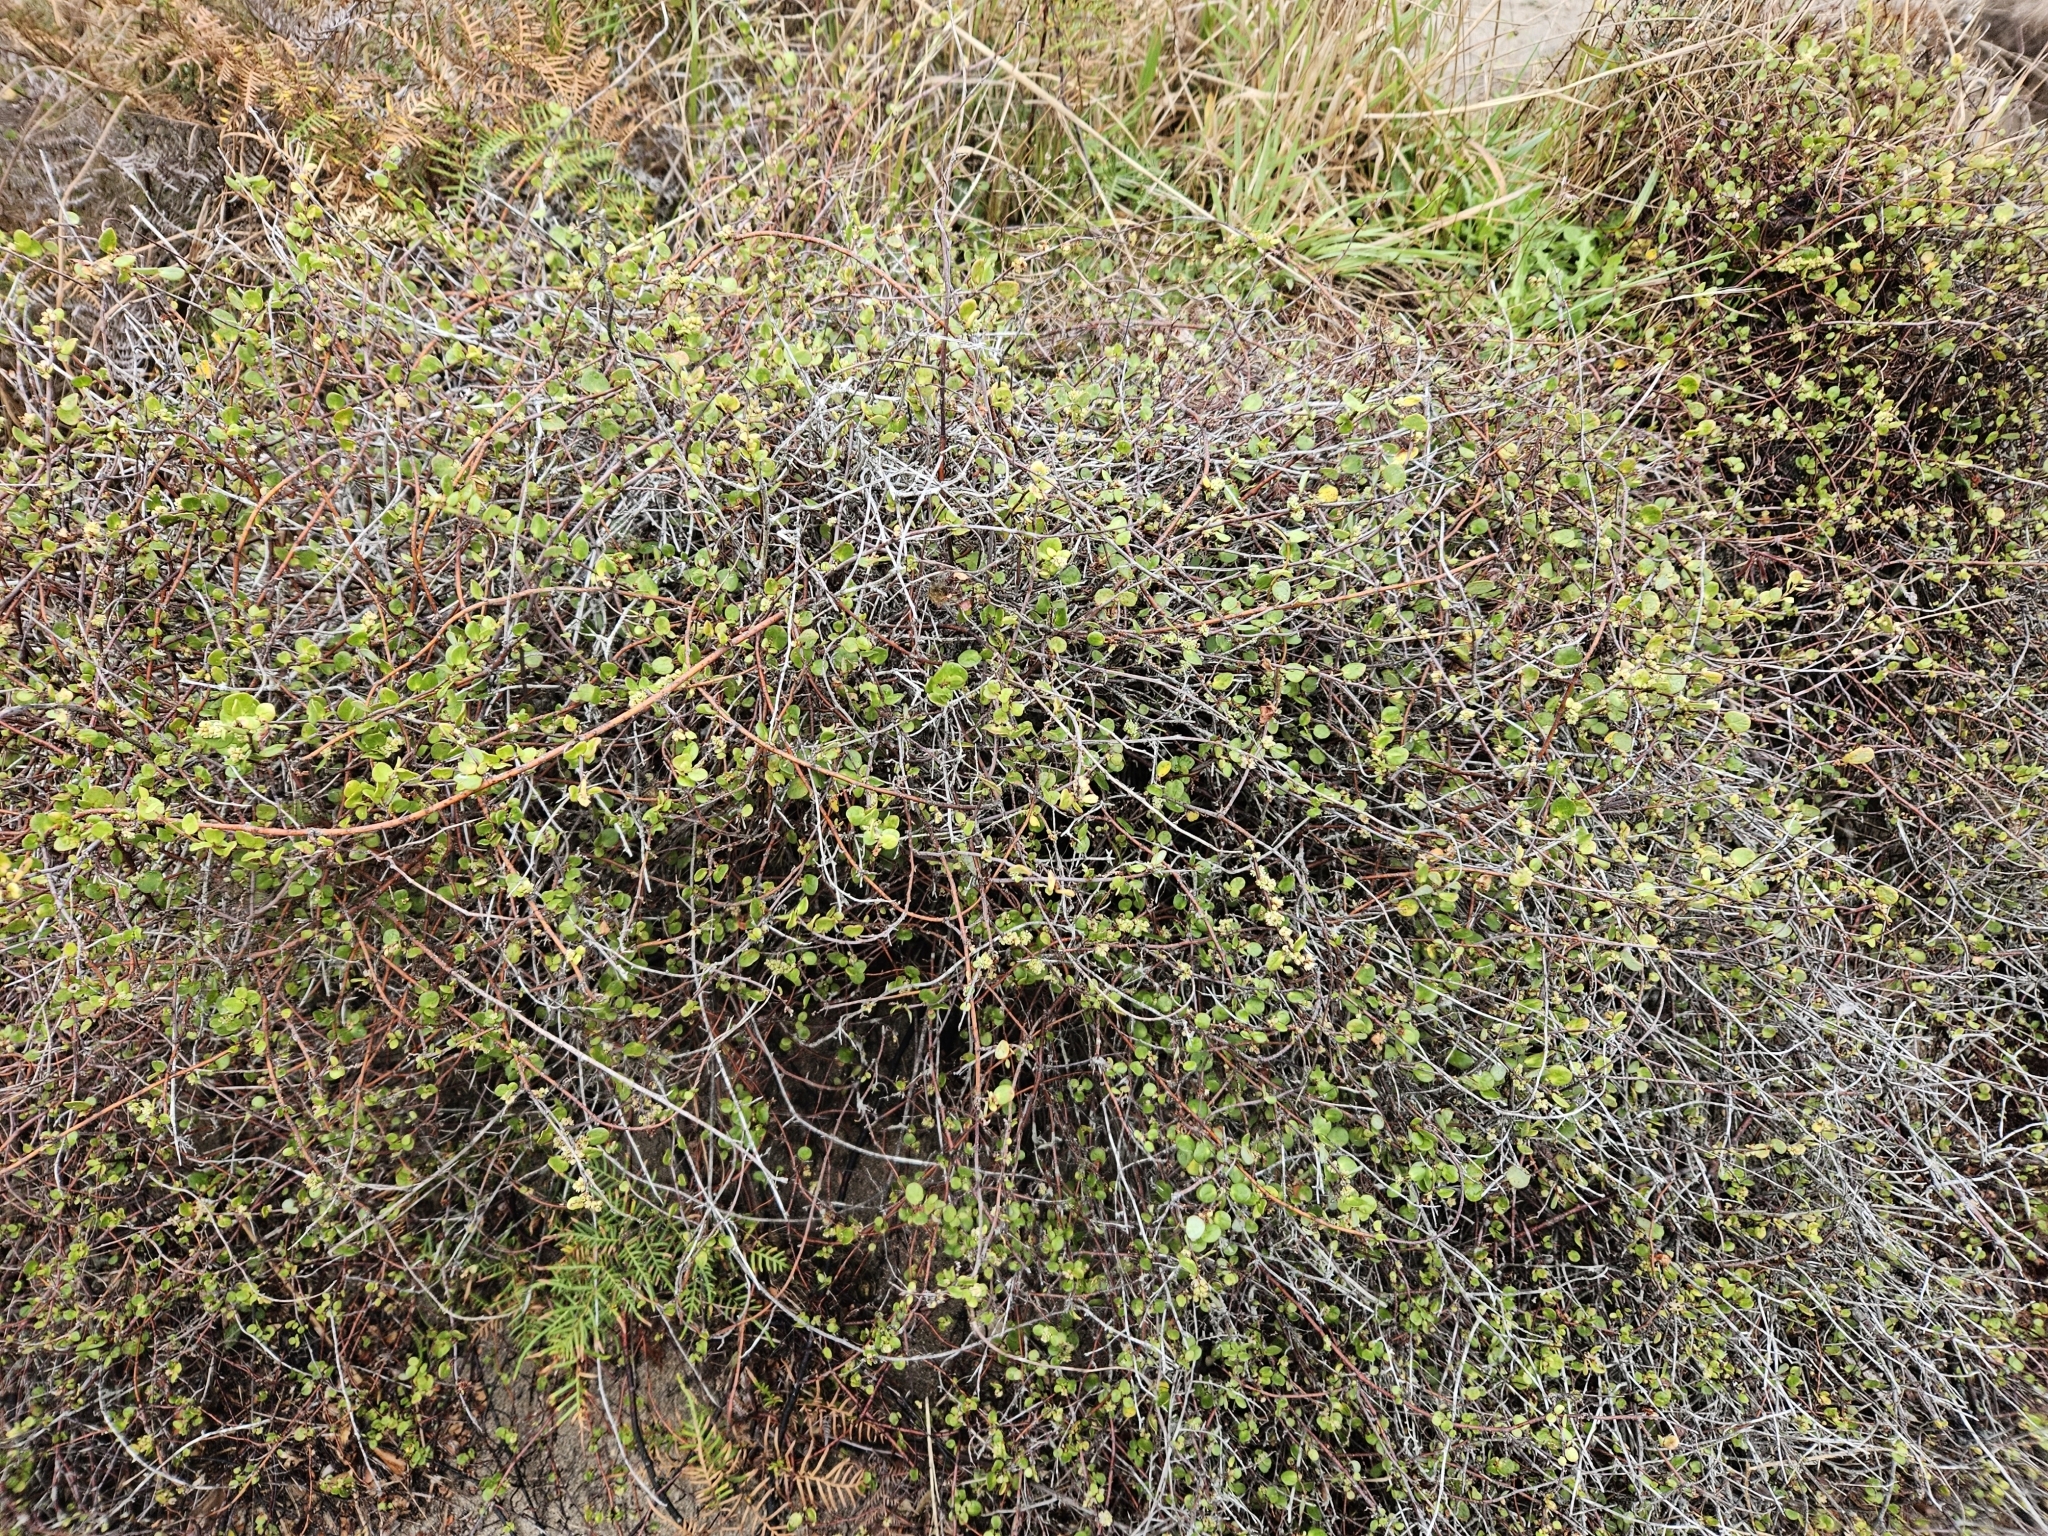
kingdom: Plantae
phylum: Tracheophyta
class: Magnoliopsida
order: Caryophyllales
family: Polygonaceae
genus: Muehlenbeckia
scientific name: Muehlenbeckia complexa
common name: Wireplant
